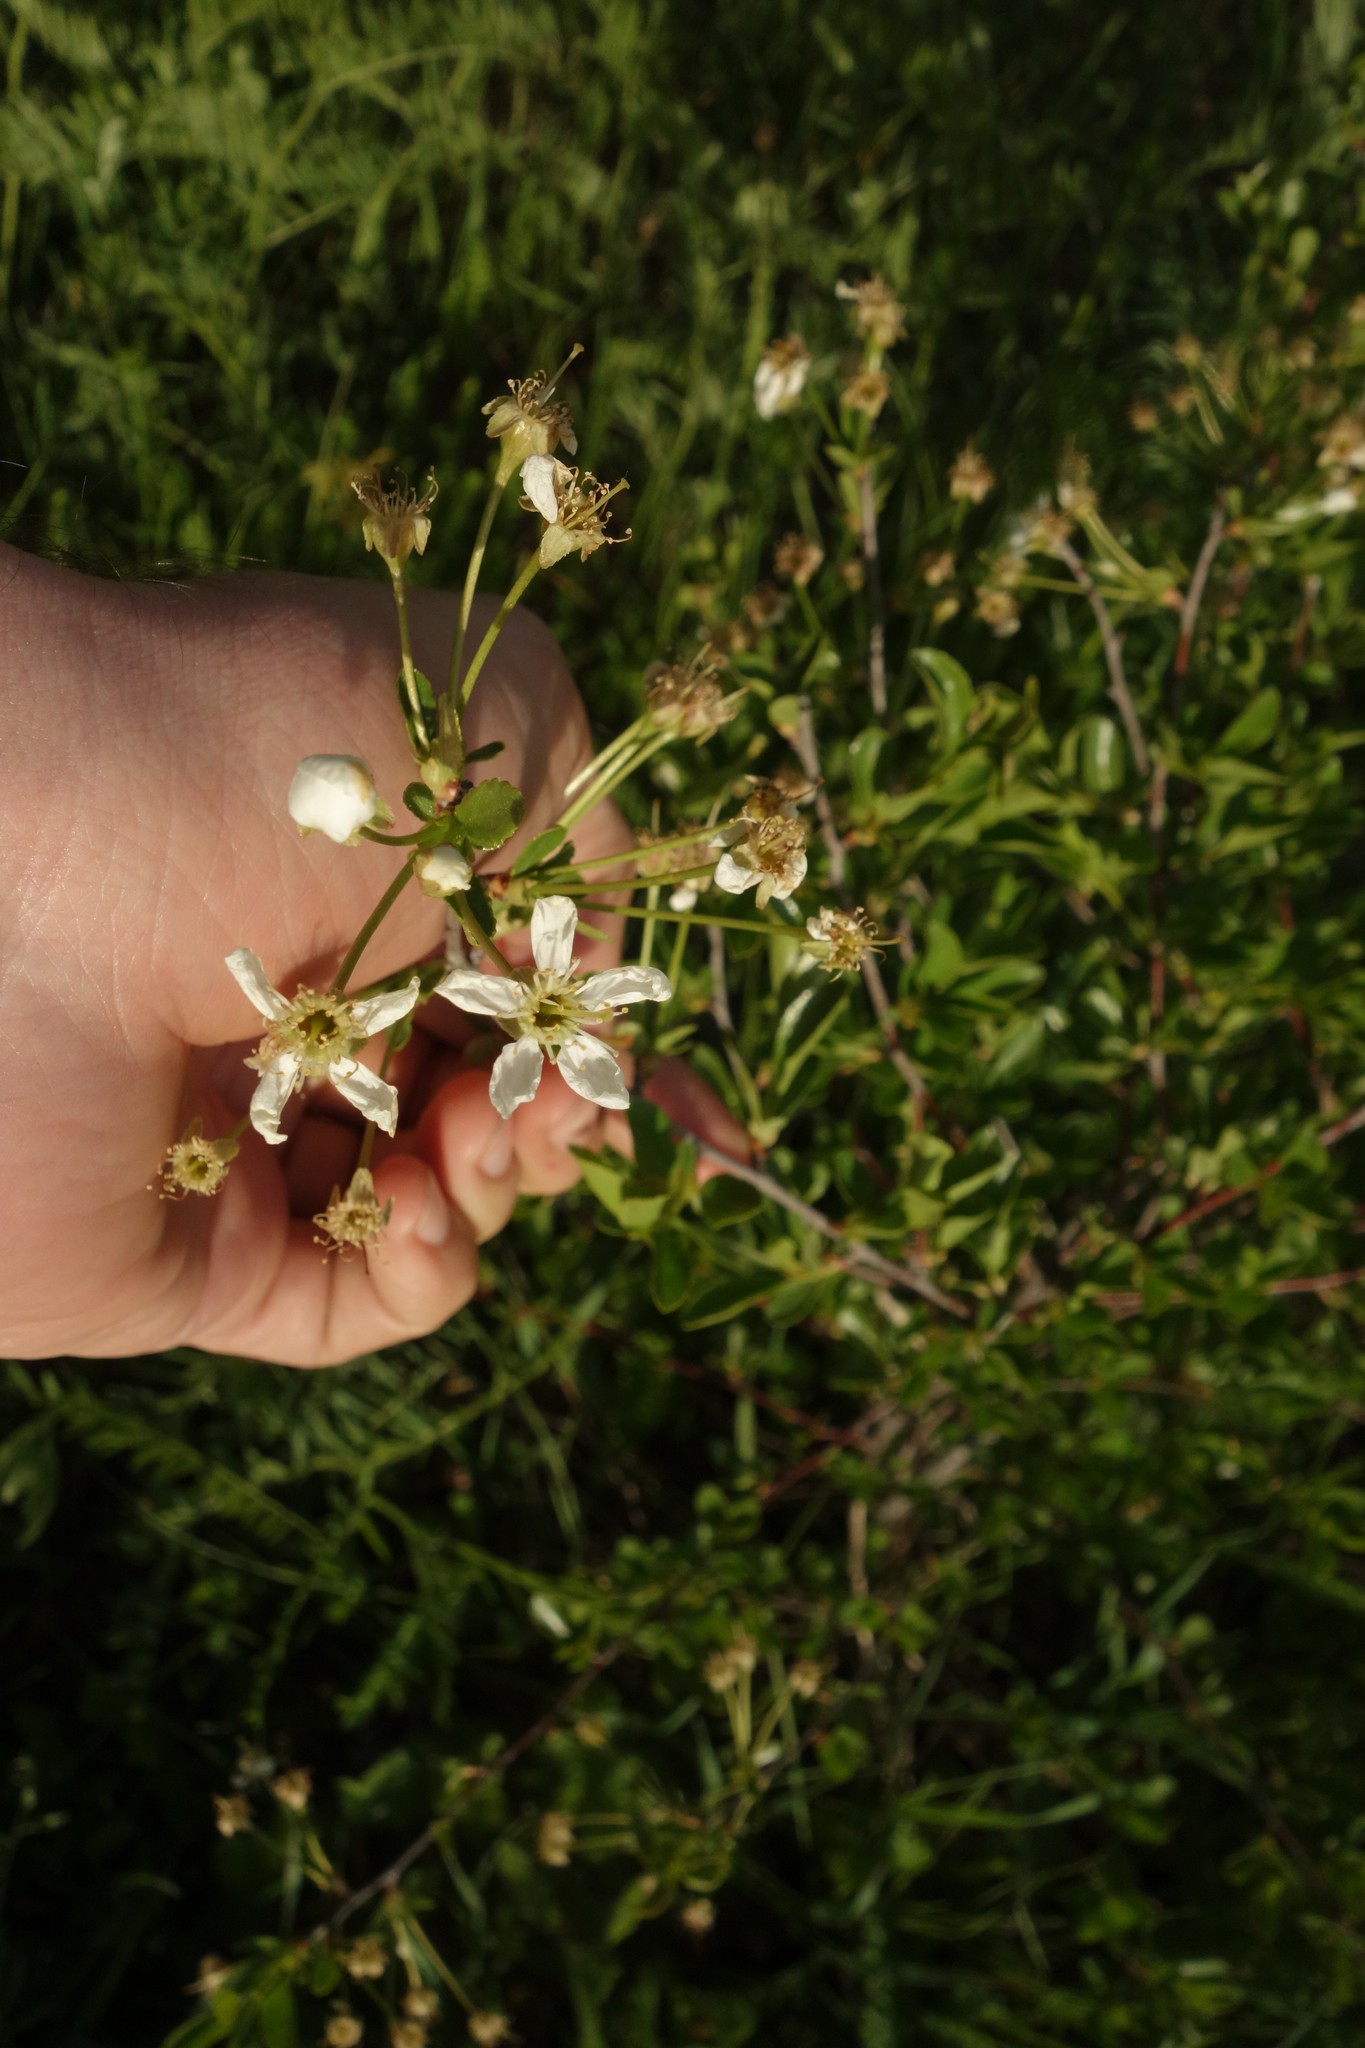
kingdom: Plantae
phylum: Tracheophyta
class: Magnoliopsida
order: Rosales
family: Rosaceae
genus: Prunus
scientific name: Prunus fruticosa
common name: European dwarf cherry
